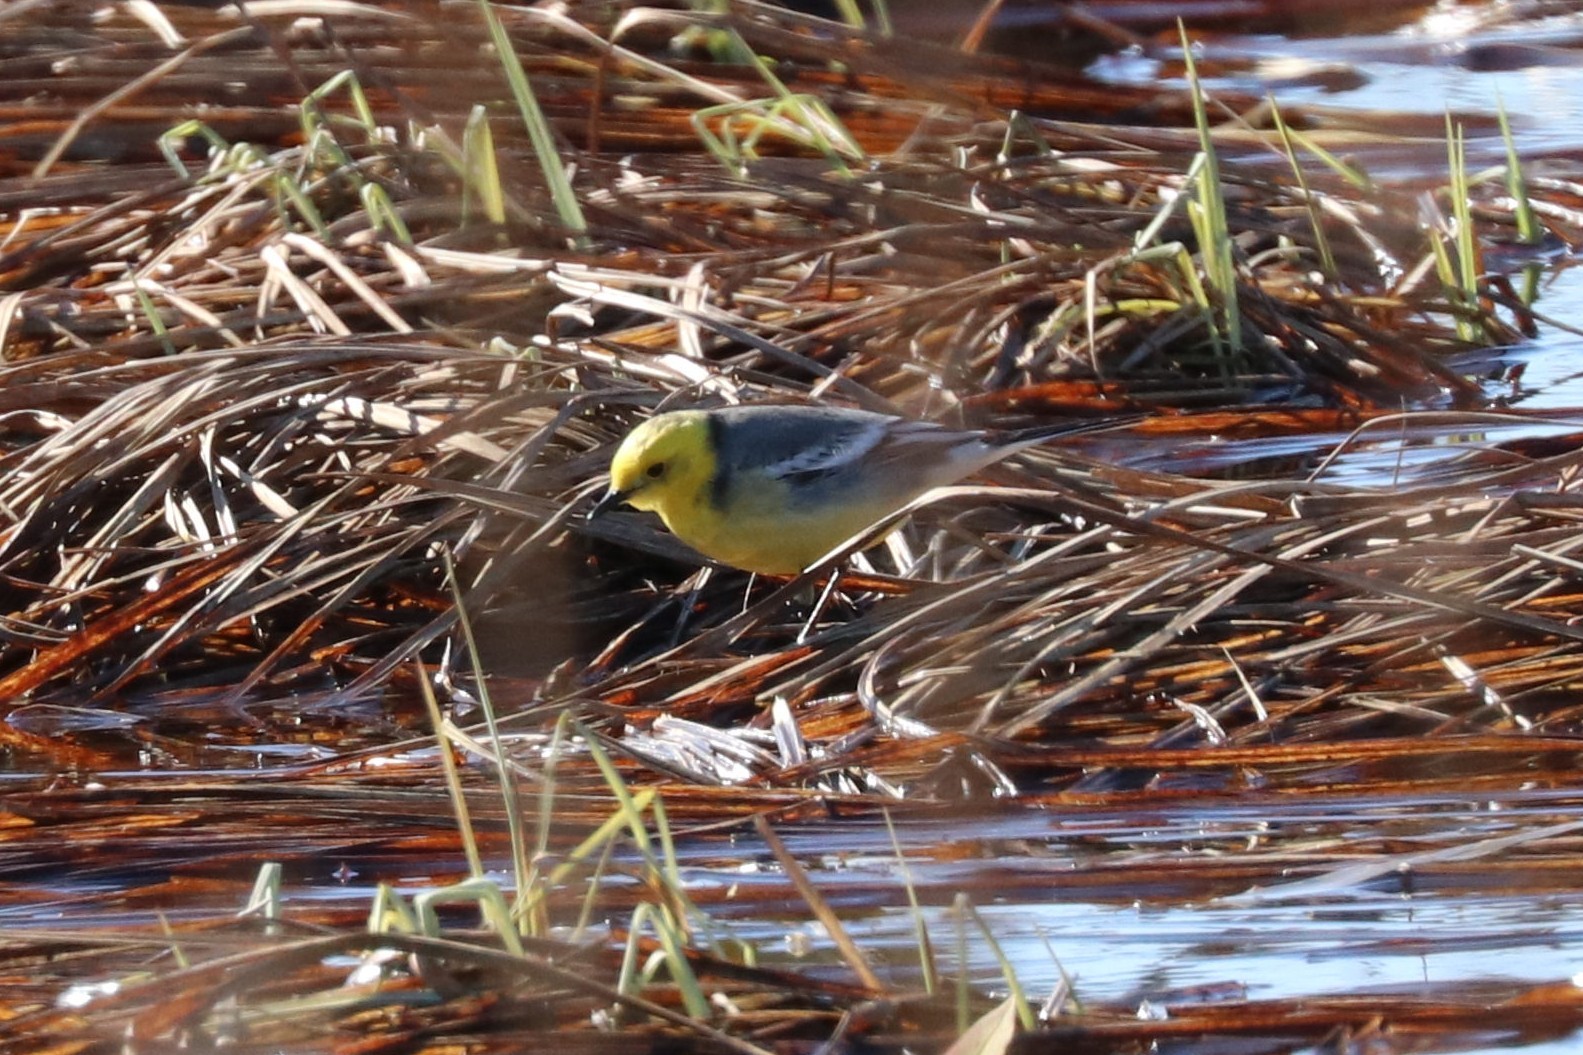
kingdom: Animalia
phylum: Chordata
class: Aves
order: Passeriformes
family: Motacillidae
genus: Motacilla
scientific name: Motacilla citreola
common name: Citrine wagtail
